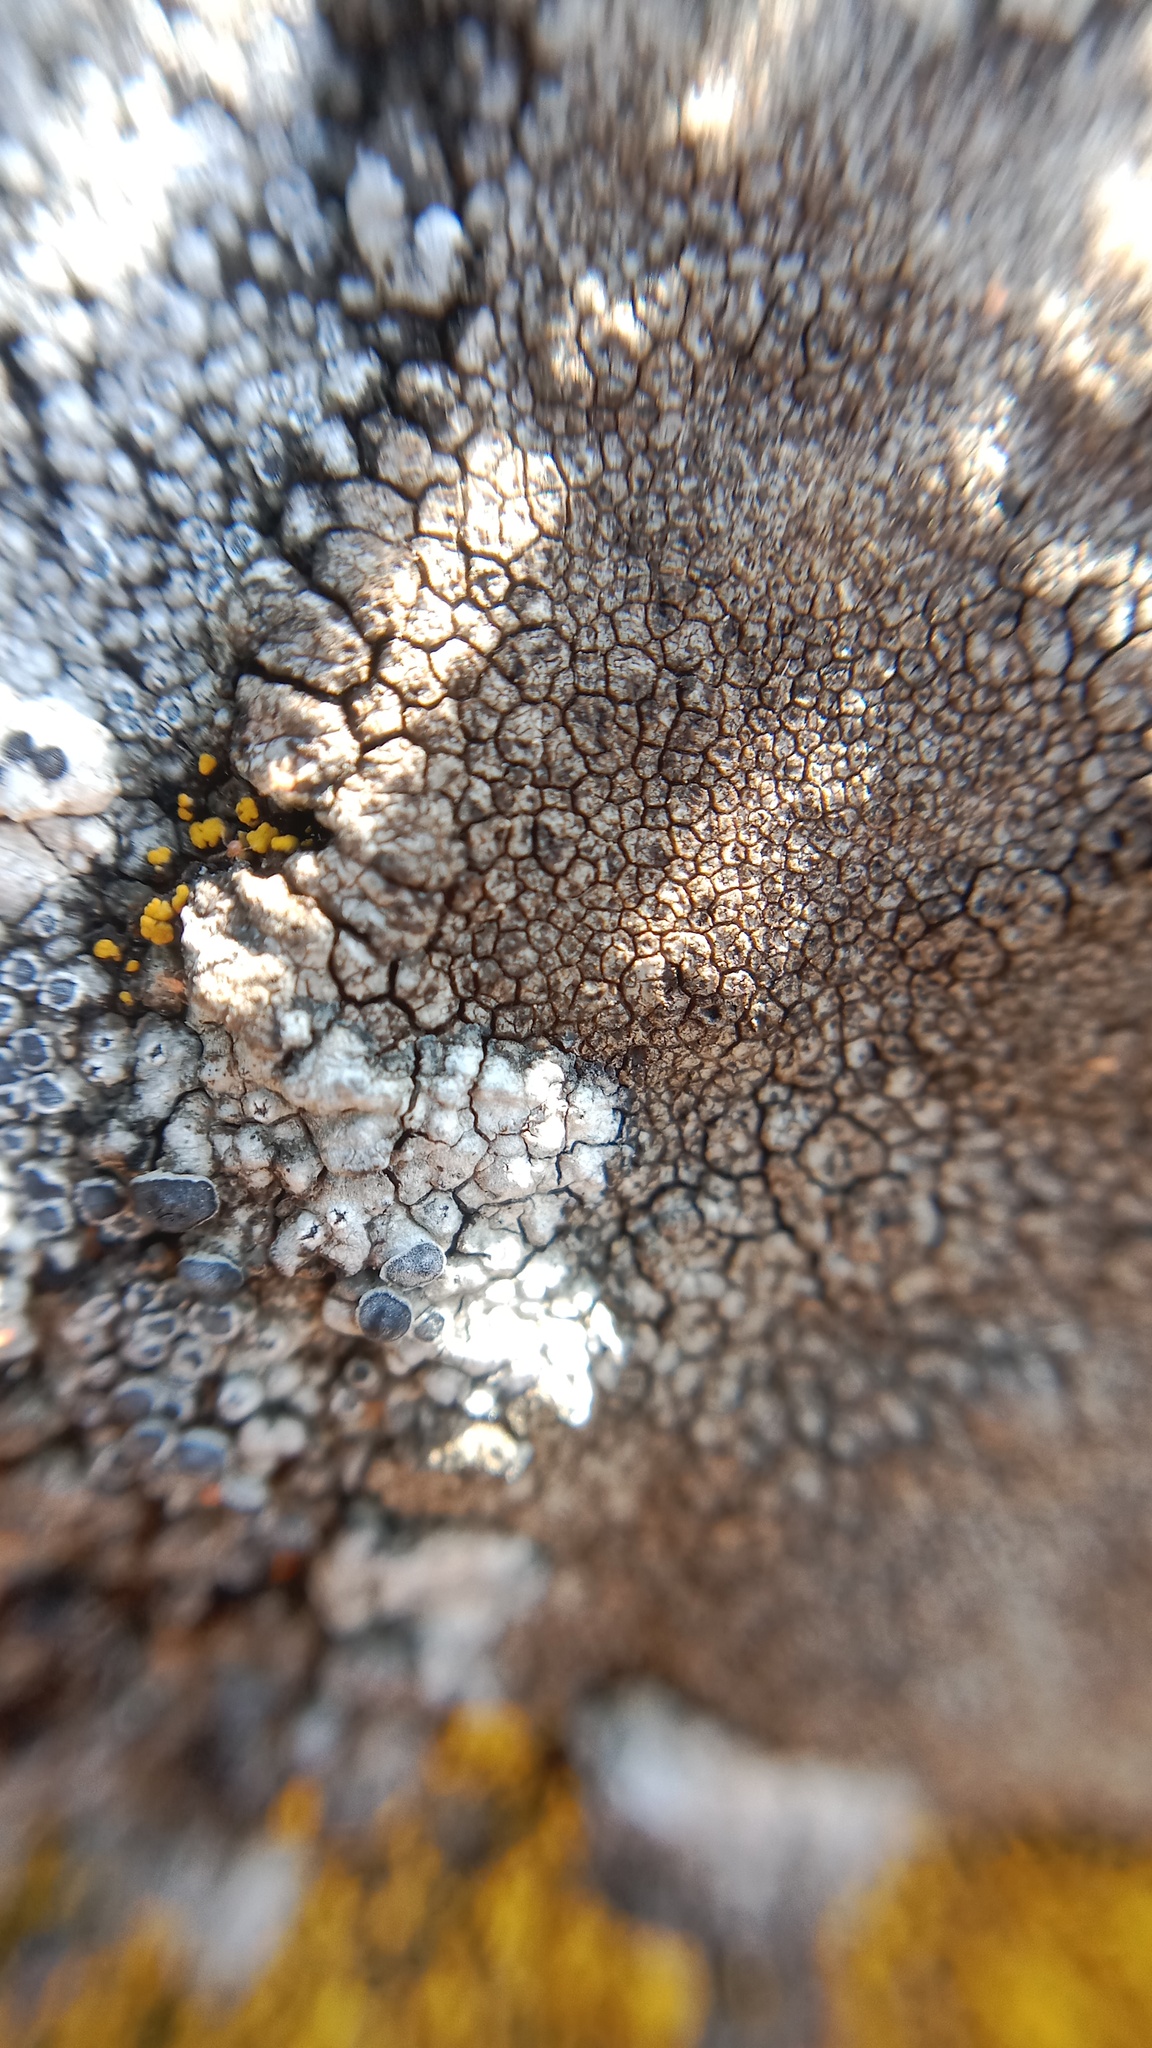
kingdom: Fungi
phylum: Ascomycota
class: Lecanoromycetes
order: Teloschistales
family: Teloschistaceae
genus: Pyrenodesmia
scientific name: Pyrenodesmia variabilis
